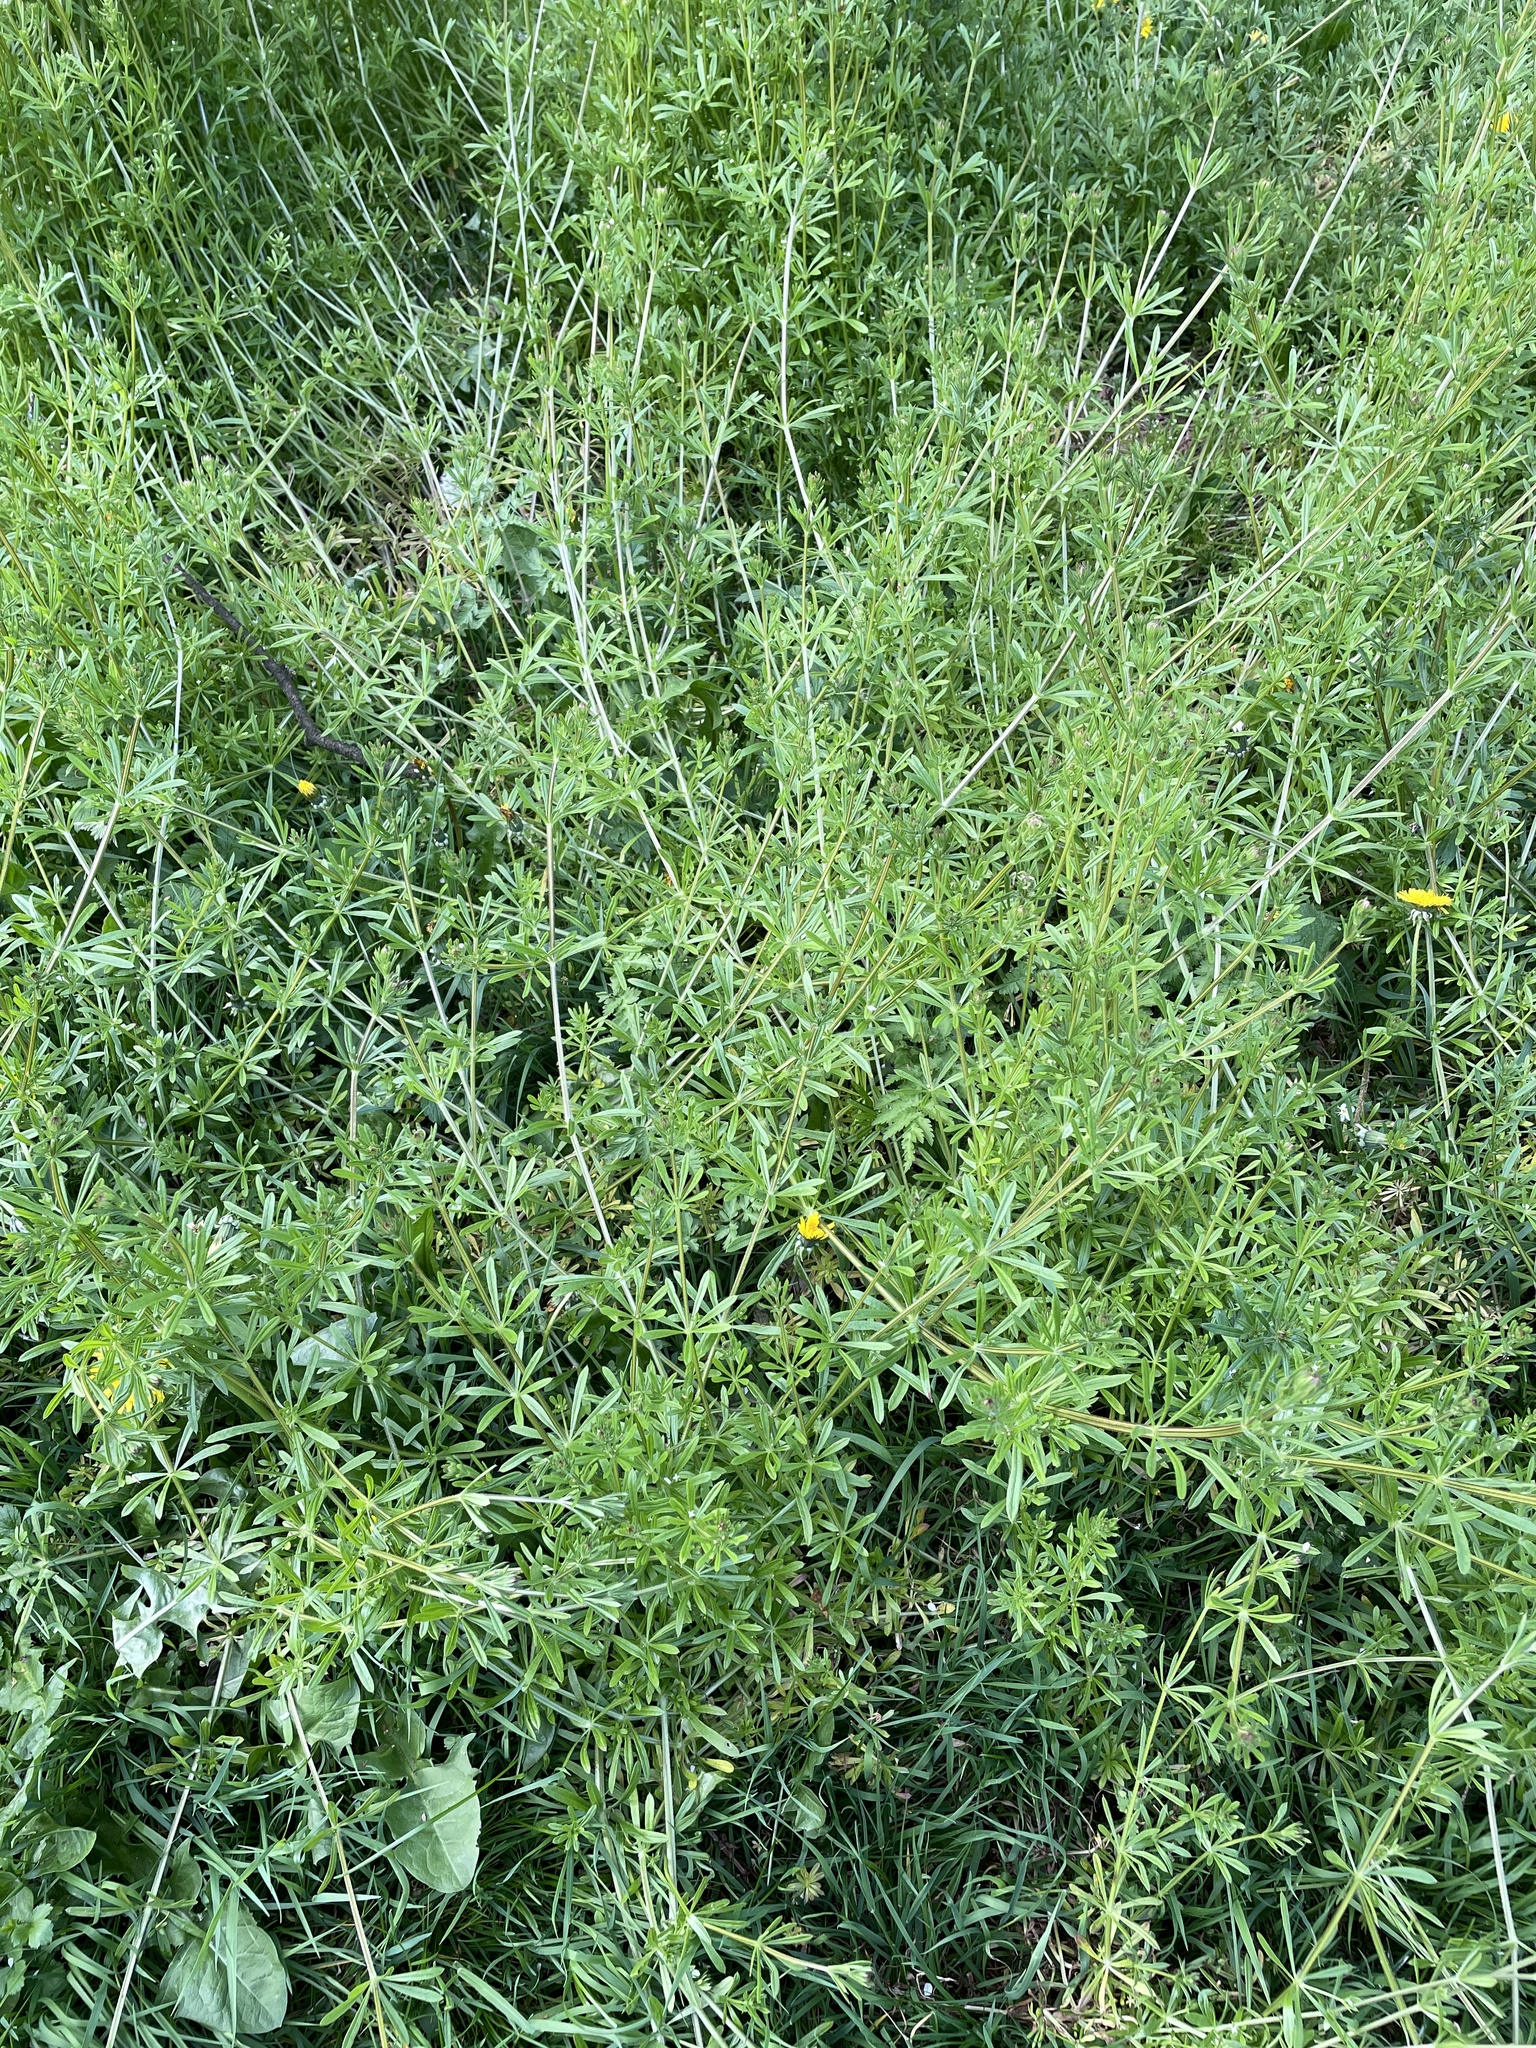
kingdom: Plantae
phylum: Tracheophyta
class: Magnoliopsida
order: Gentianales
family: Rubiaceae
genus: Galium
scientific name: Galium aparine
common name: Cleavers
